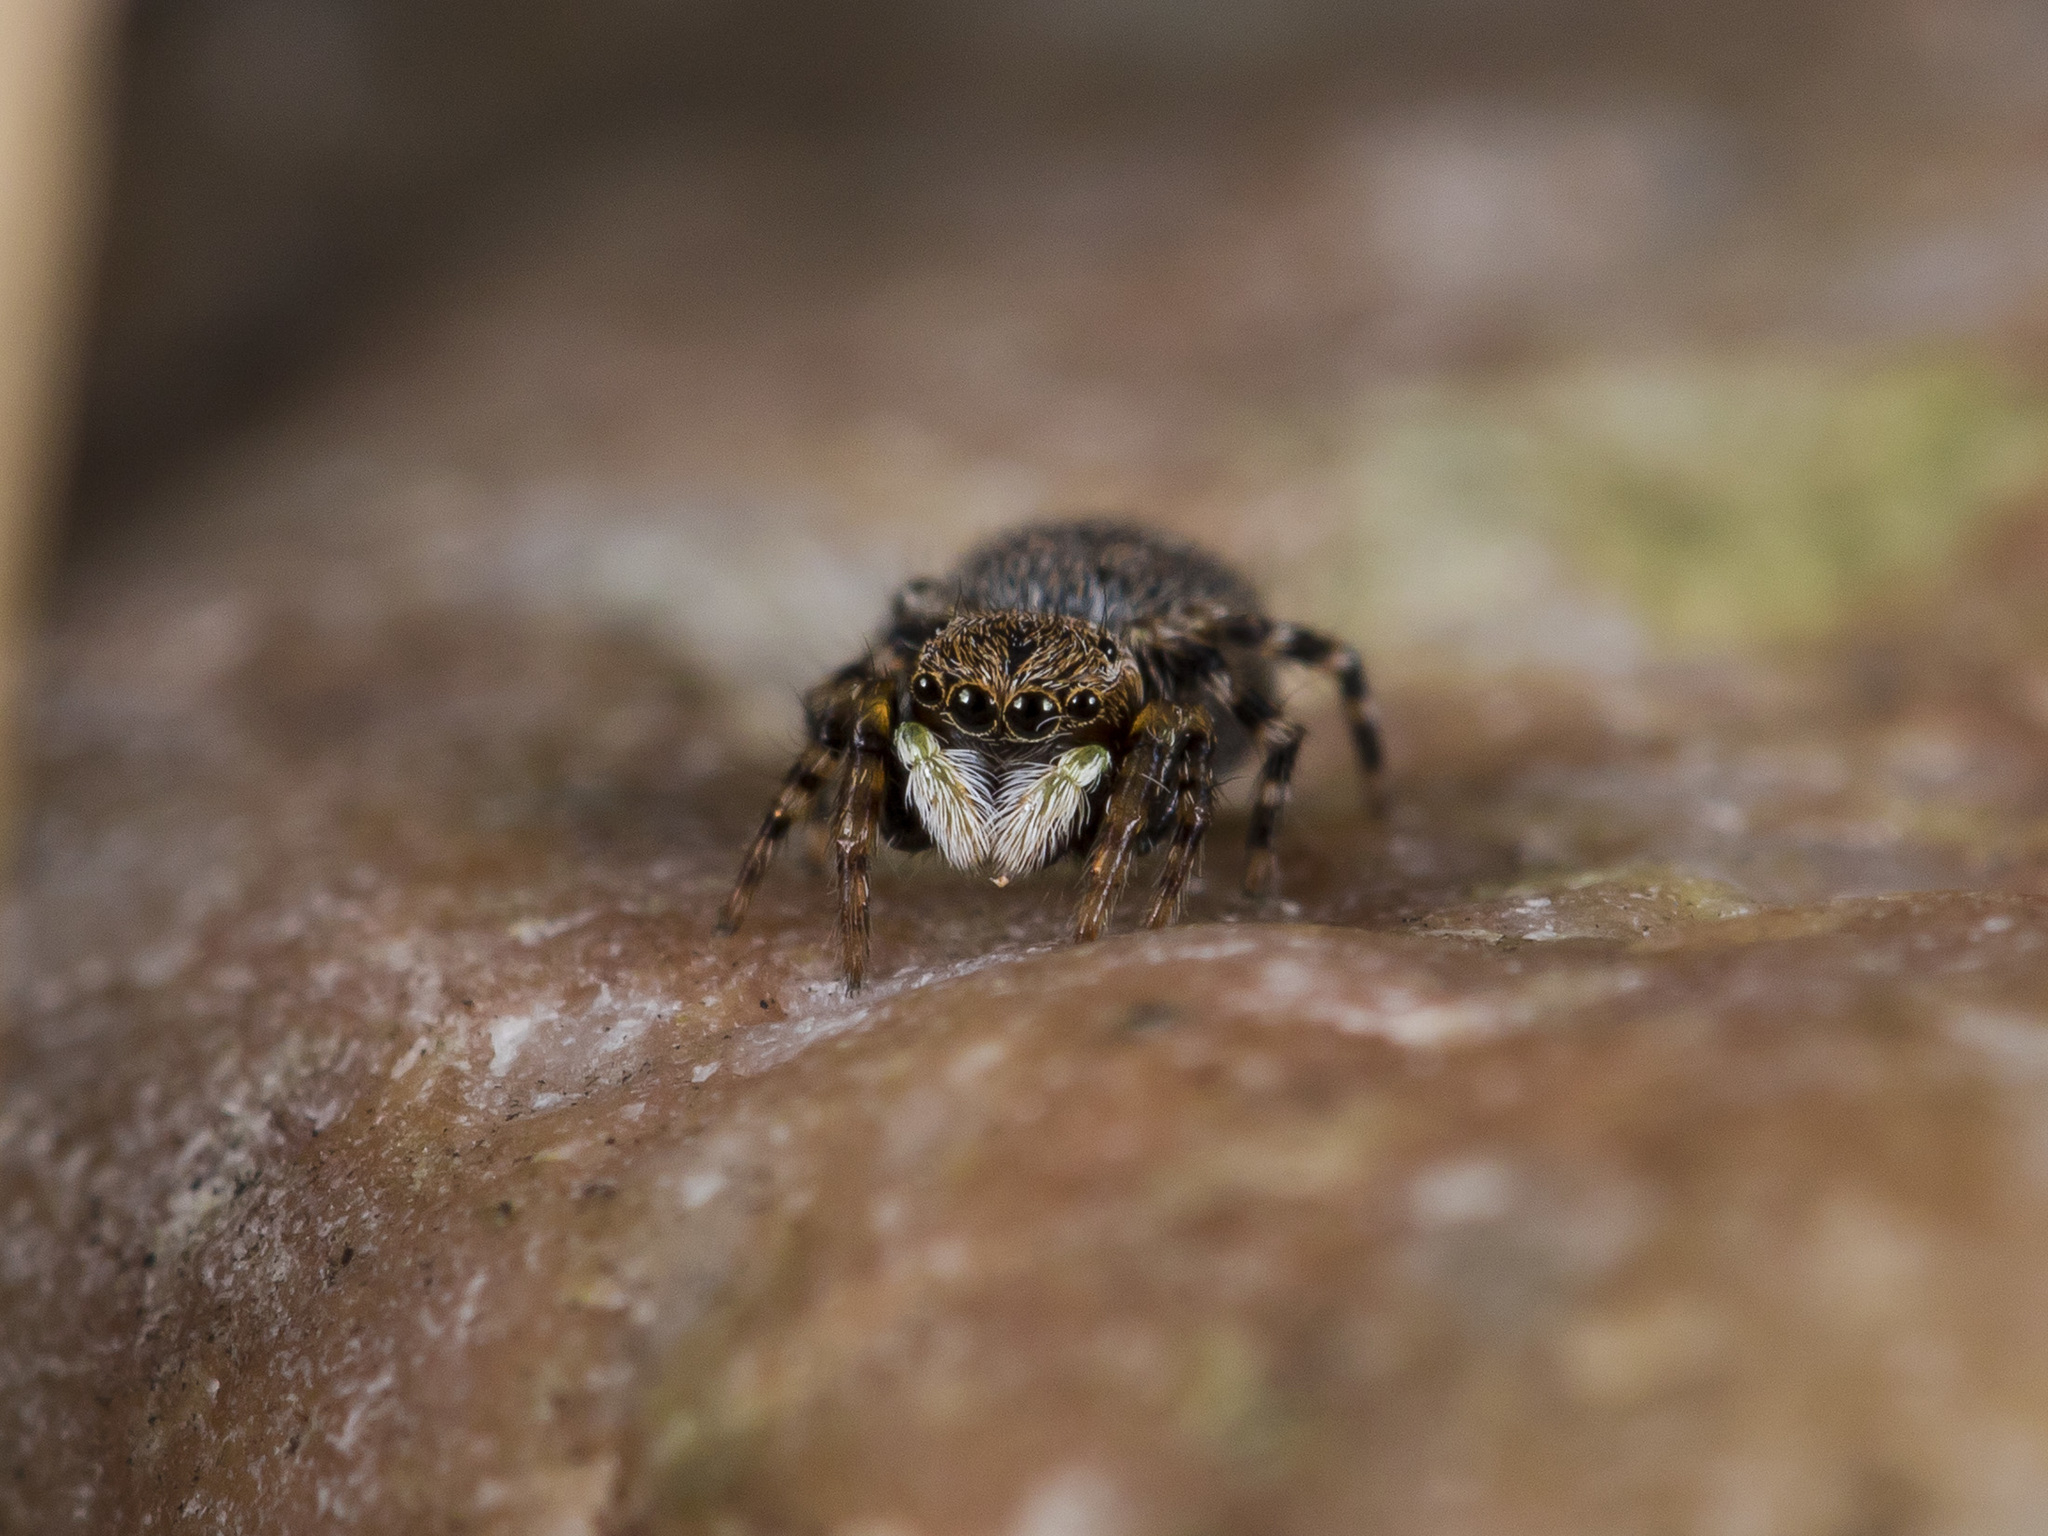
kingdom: Animalia
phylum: Arthropoda
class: Arachnida
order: Araneae
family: Salticidae
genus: Talavera
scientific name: Talavera petrensis
